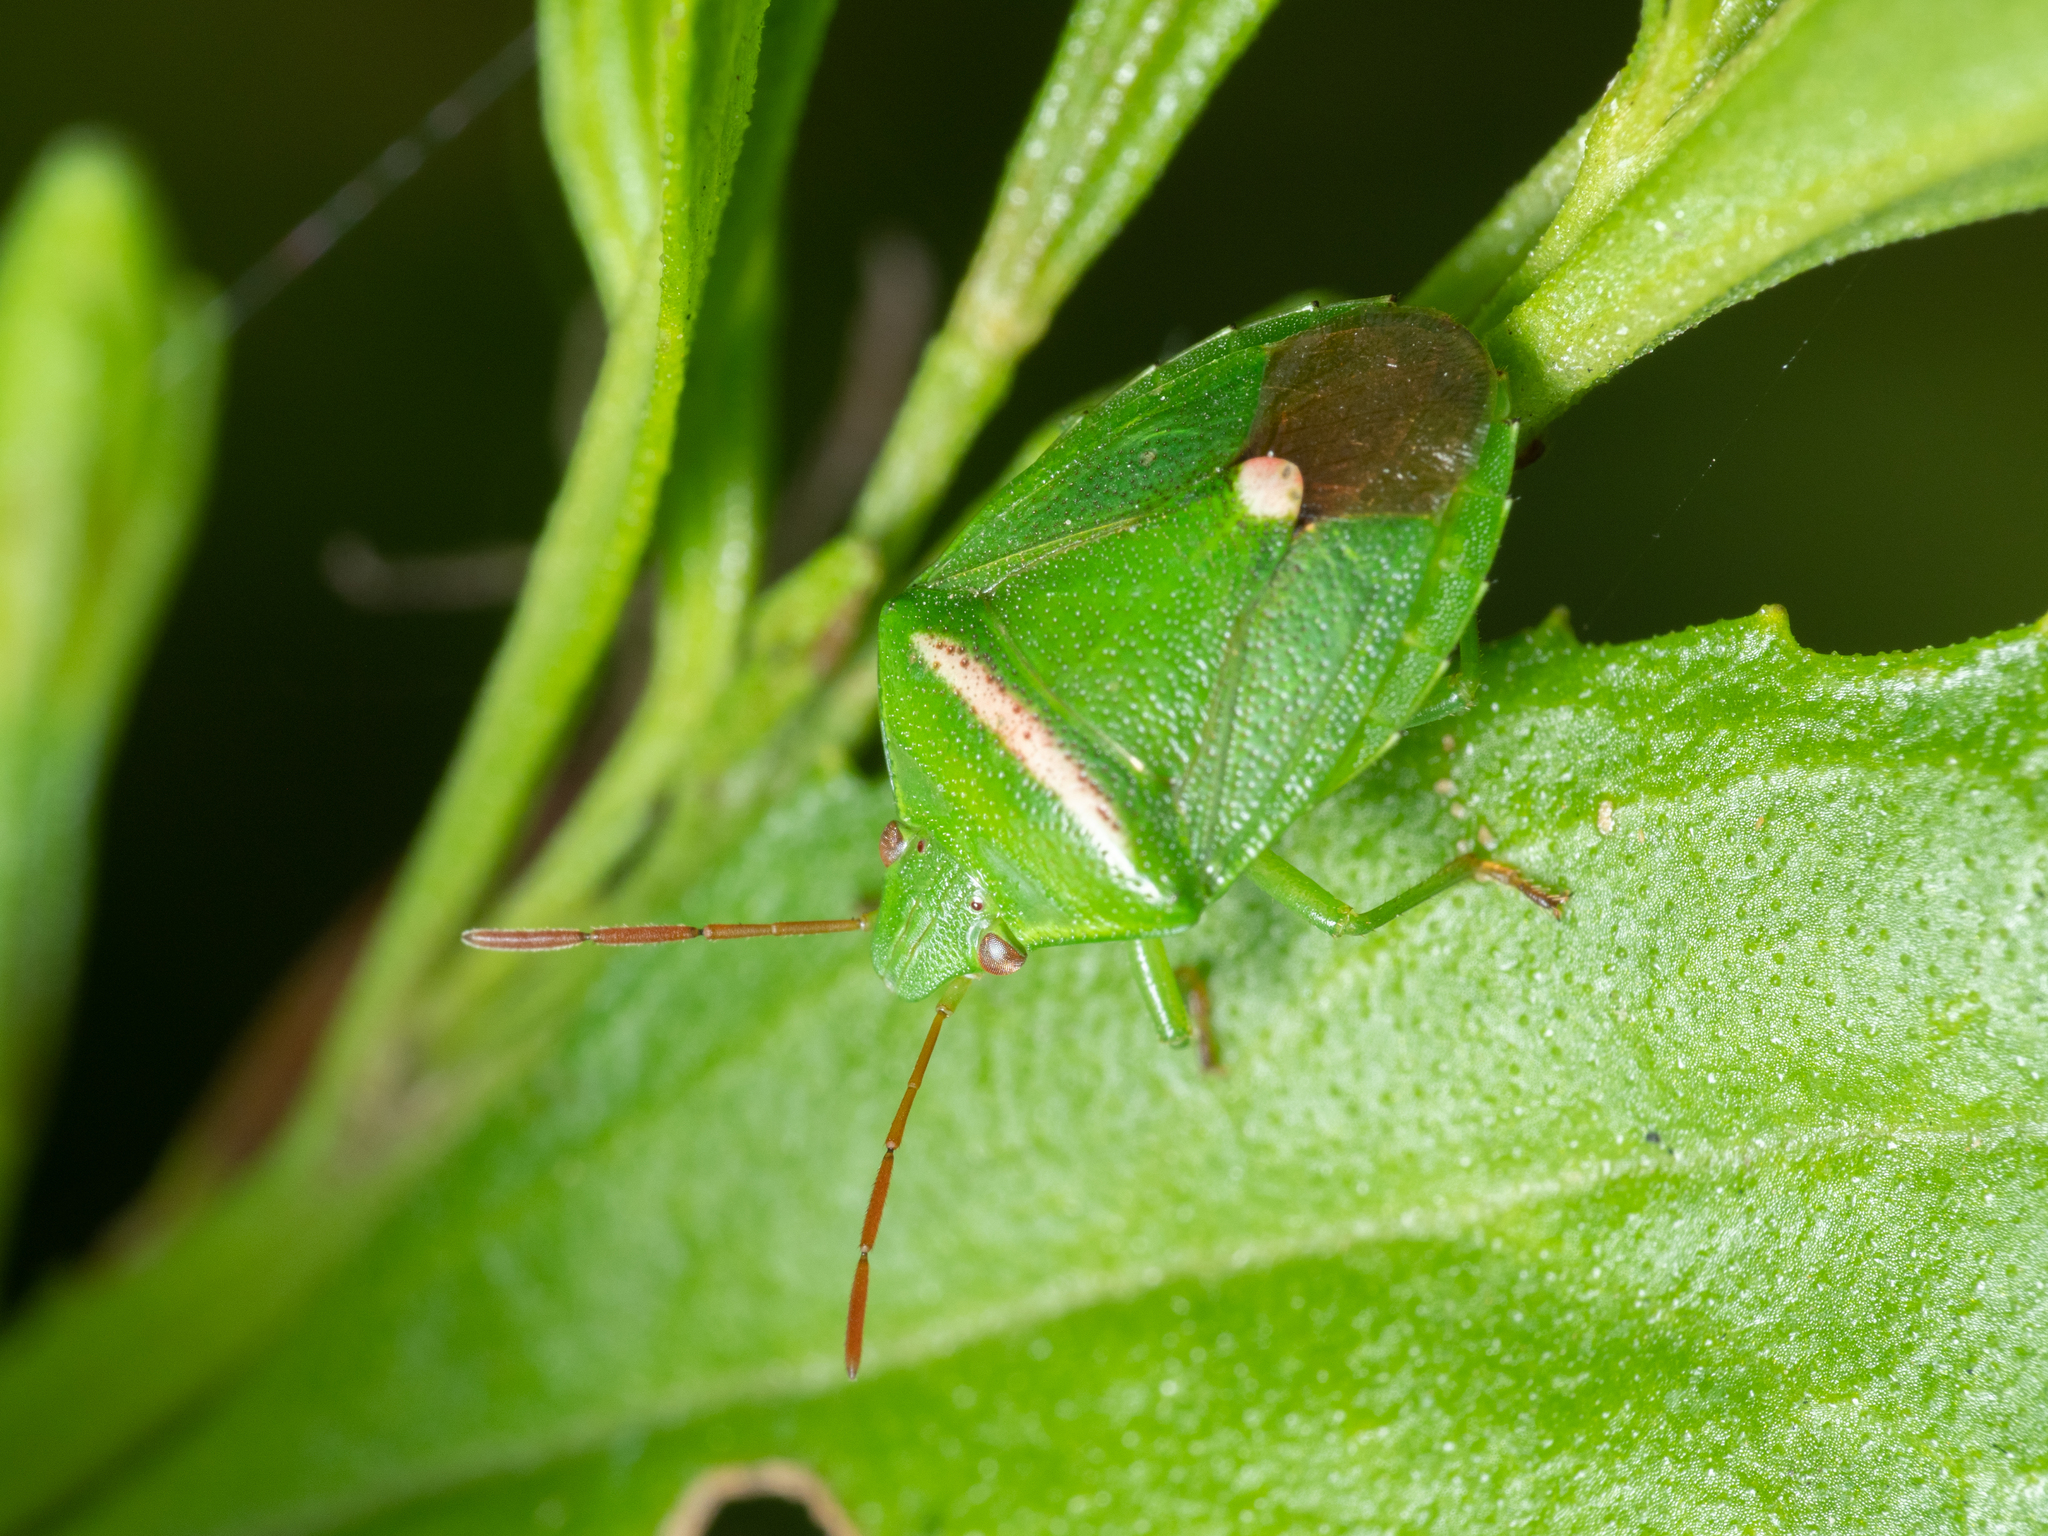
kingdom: Animalia
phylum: Arthropoda
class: Insecta
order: Hemiptera
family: Pentatomidae
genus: Ocirrhoe
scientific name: Ocirrhoe
